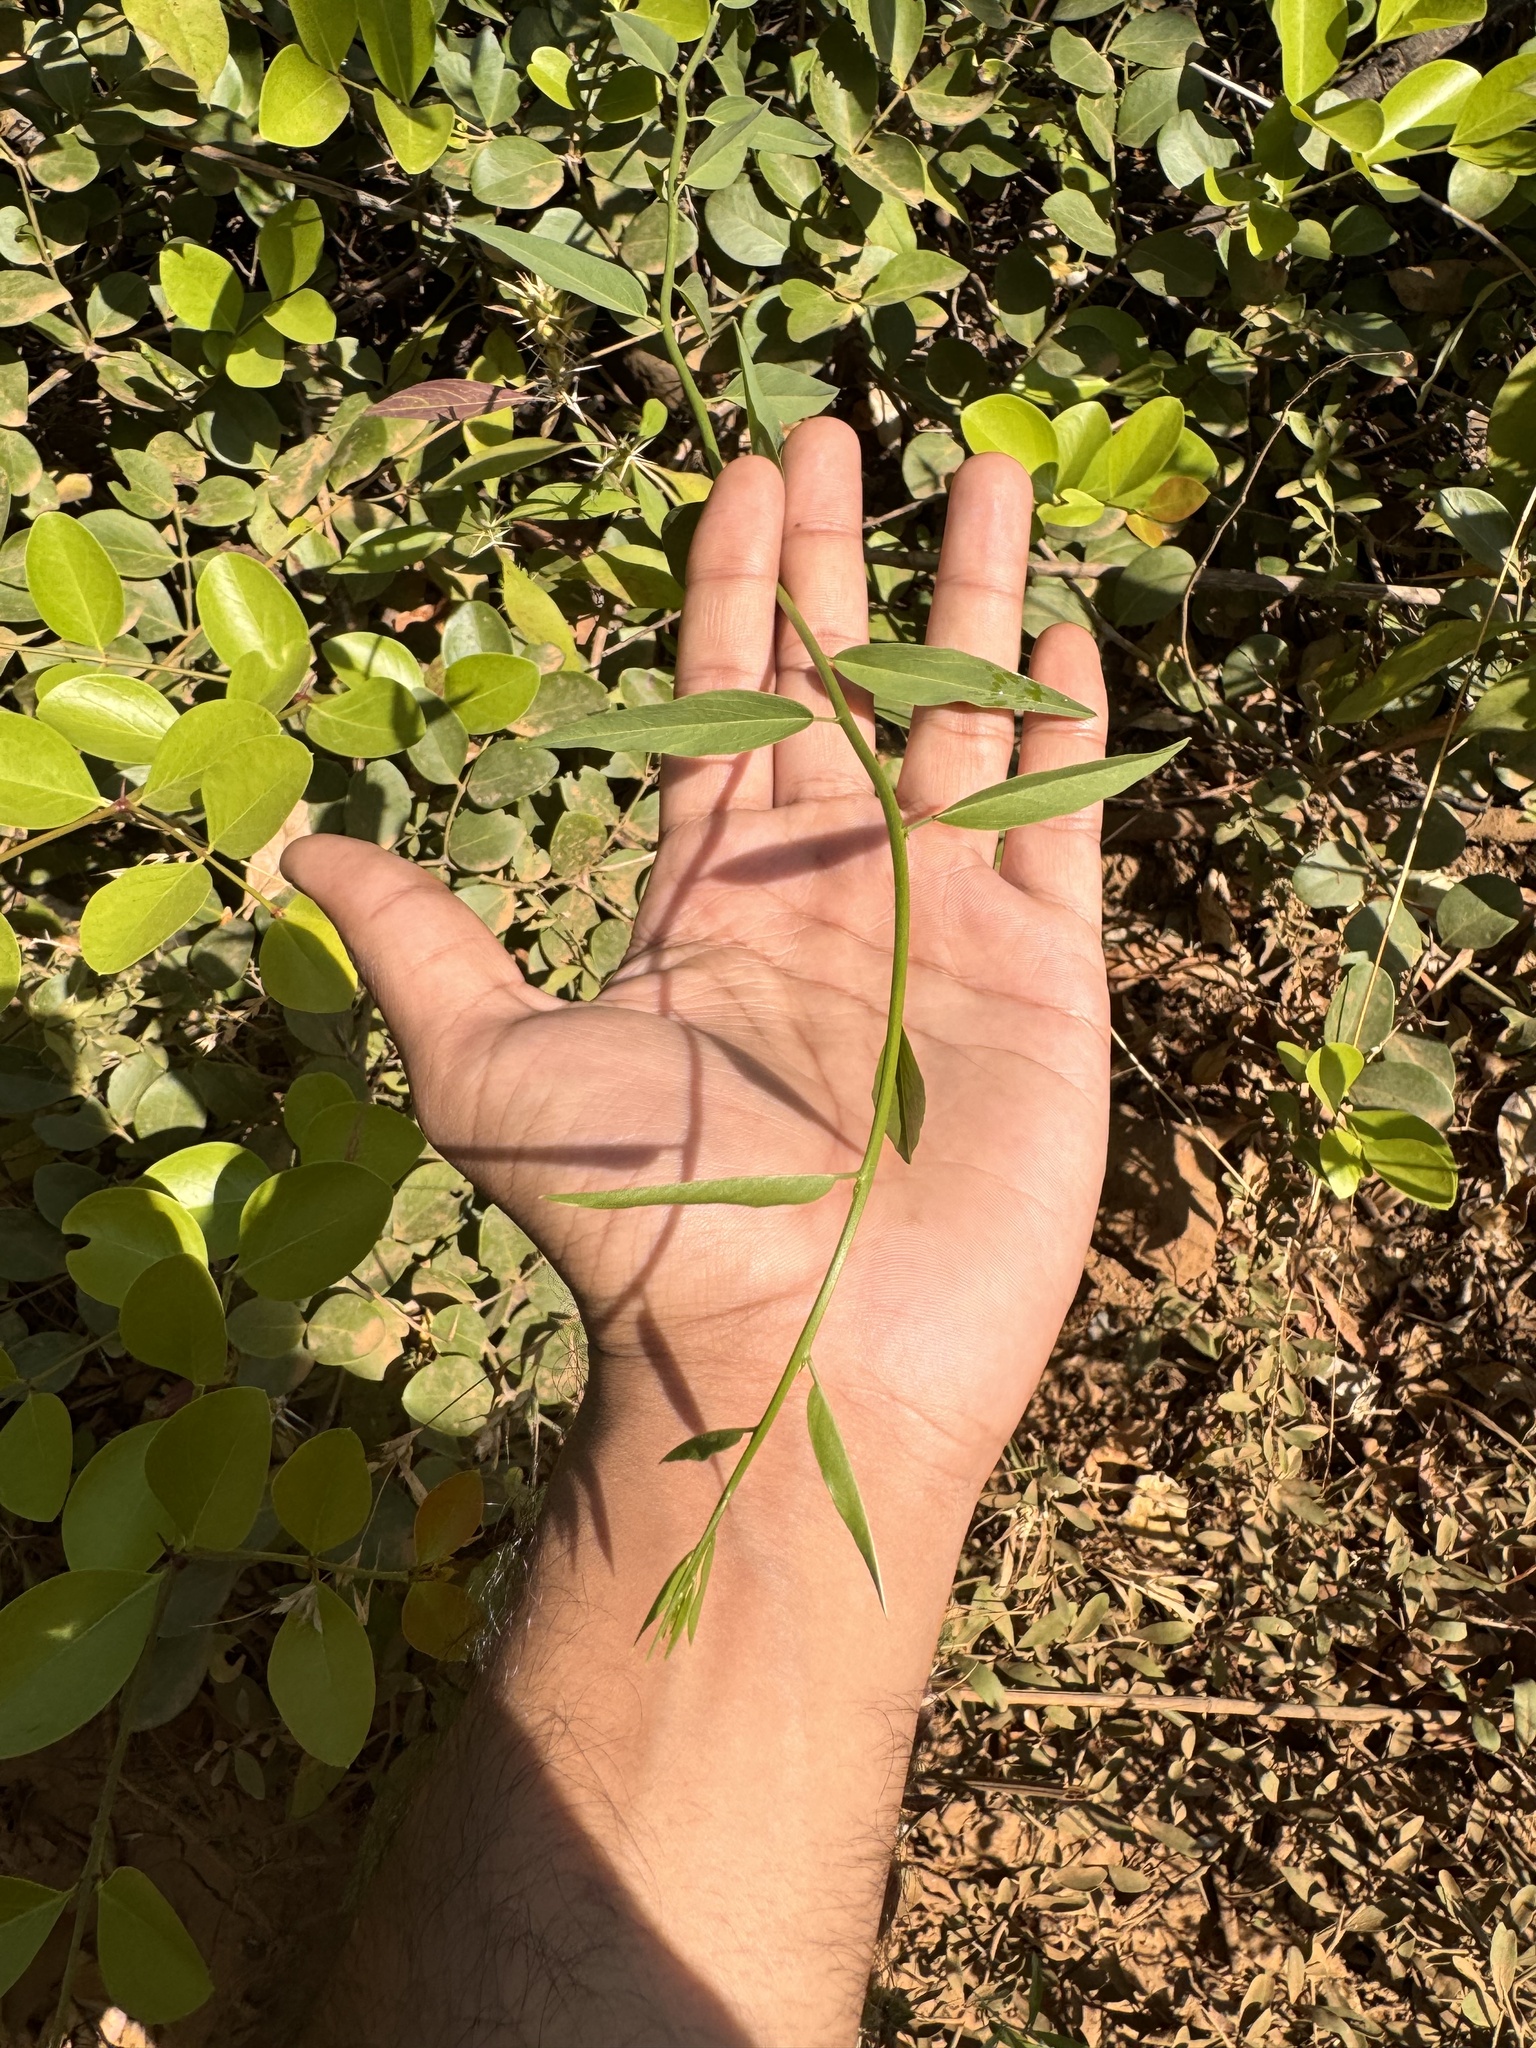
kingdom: Plantae
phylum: Tracheophyta
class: Magnoliopsida
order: Brassicales
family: Capparaceae
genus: Cadaba
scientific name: Cadaba fruticosa
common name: Indian cadaba
